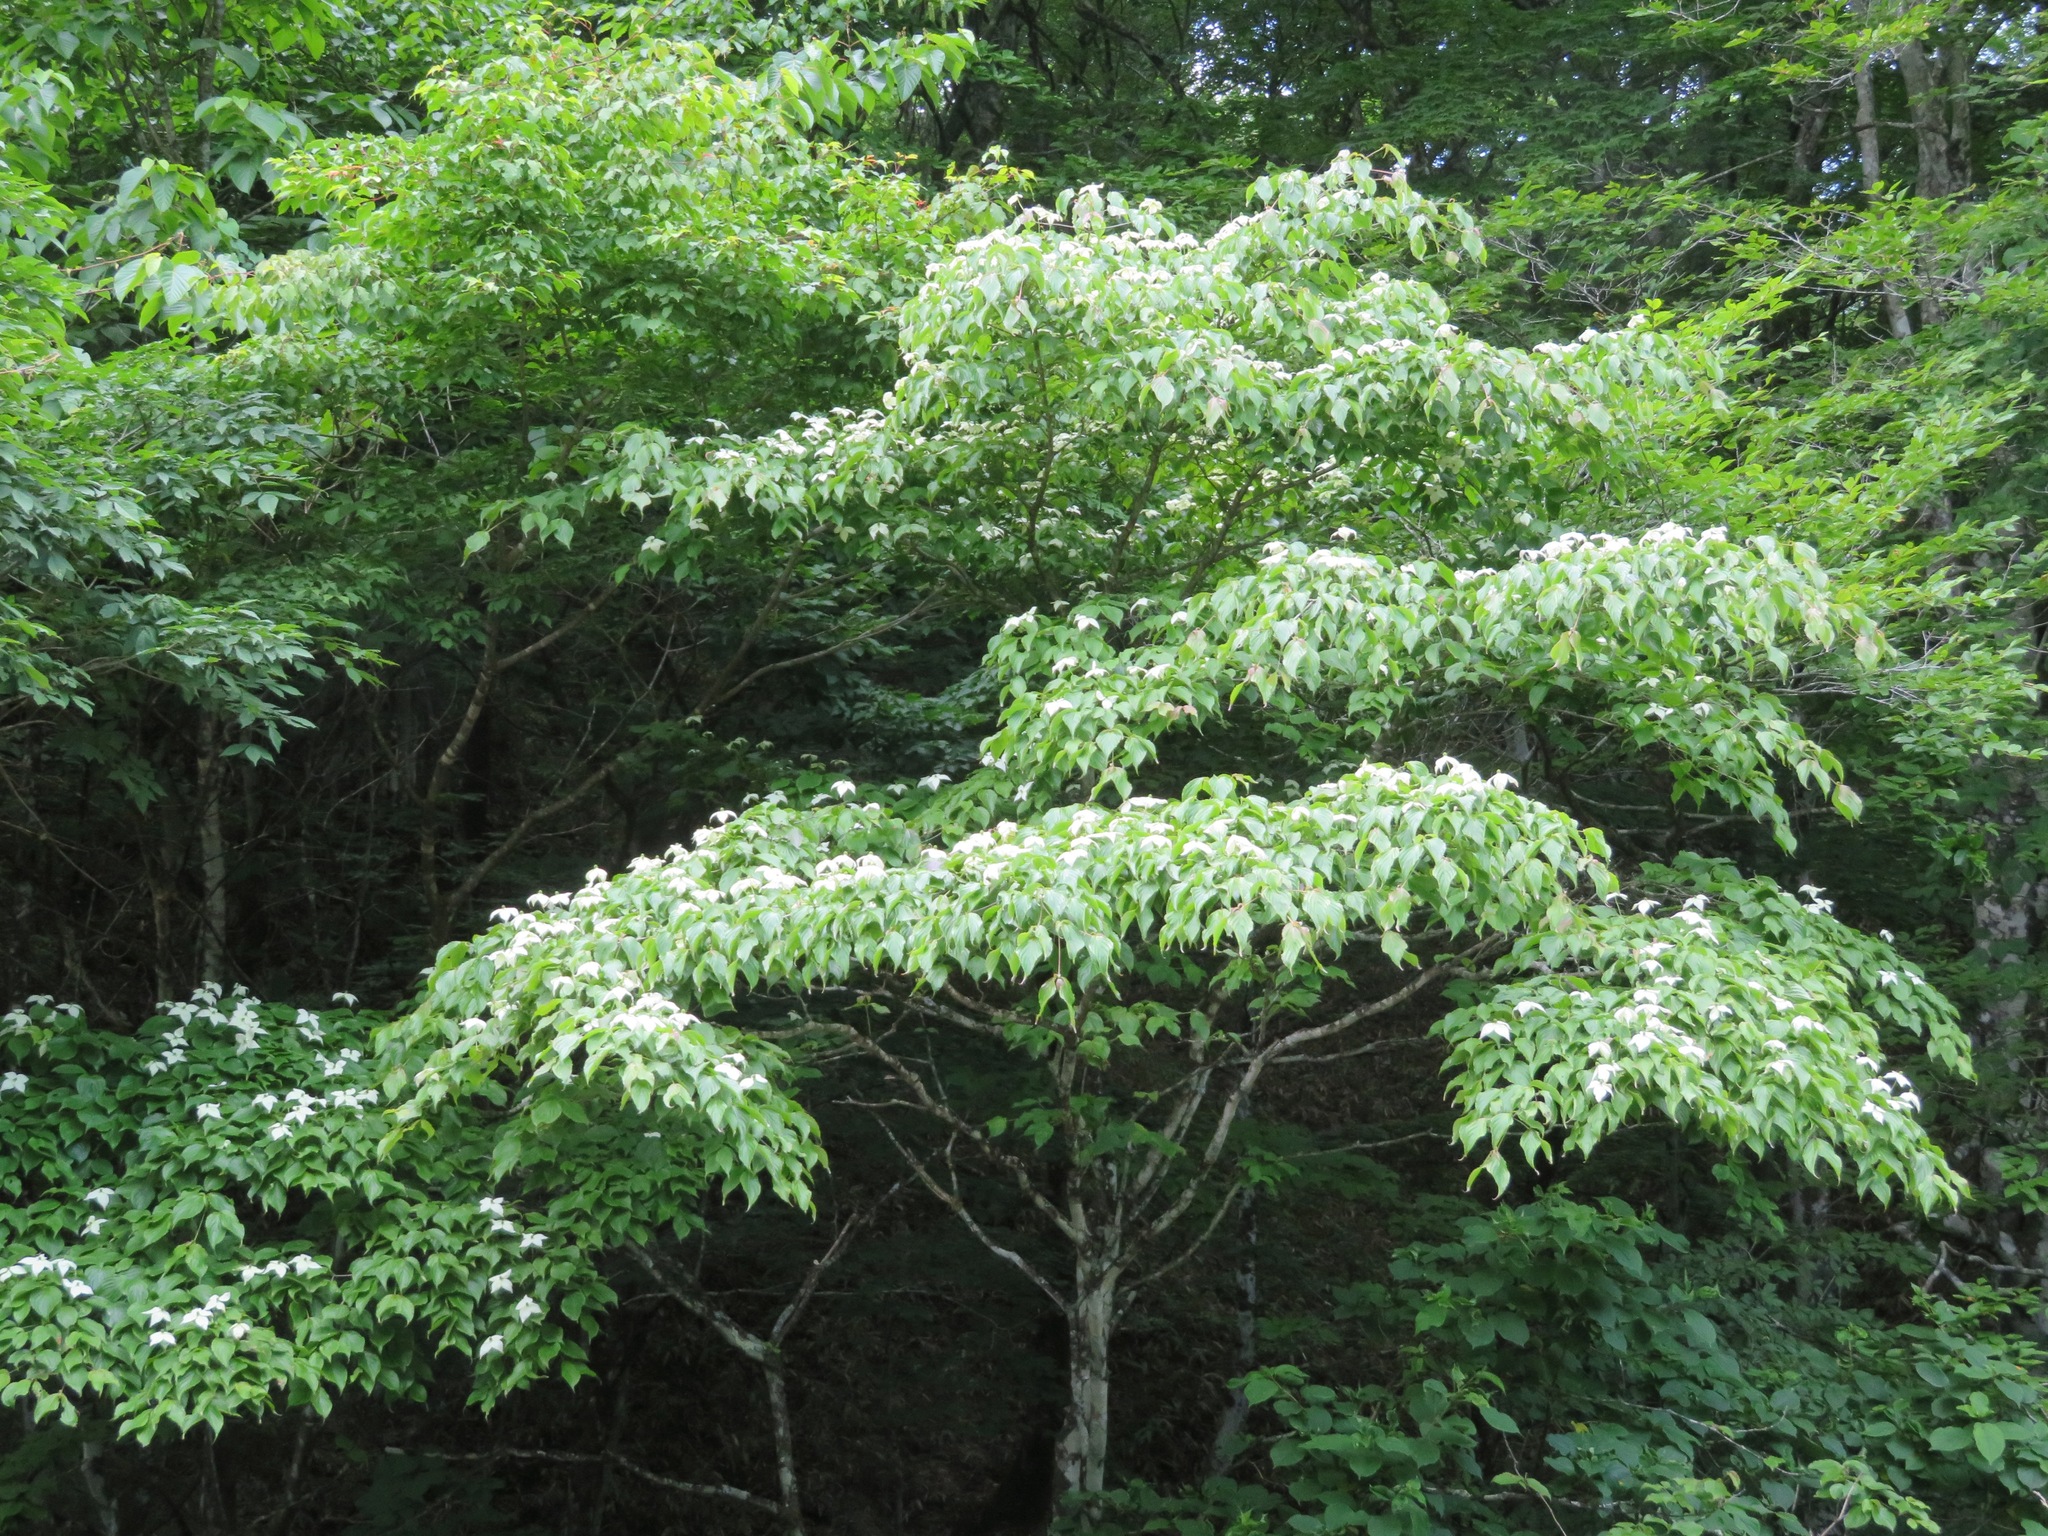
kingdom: Plantae
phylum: Tracheophyta
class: Magnoliopsida
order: Cornales
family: Cornaceae
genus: Cornus
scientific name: Cornus kousa
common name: Japanese dogwood
